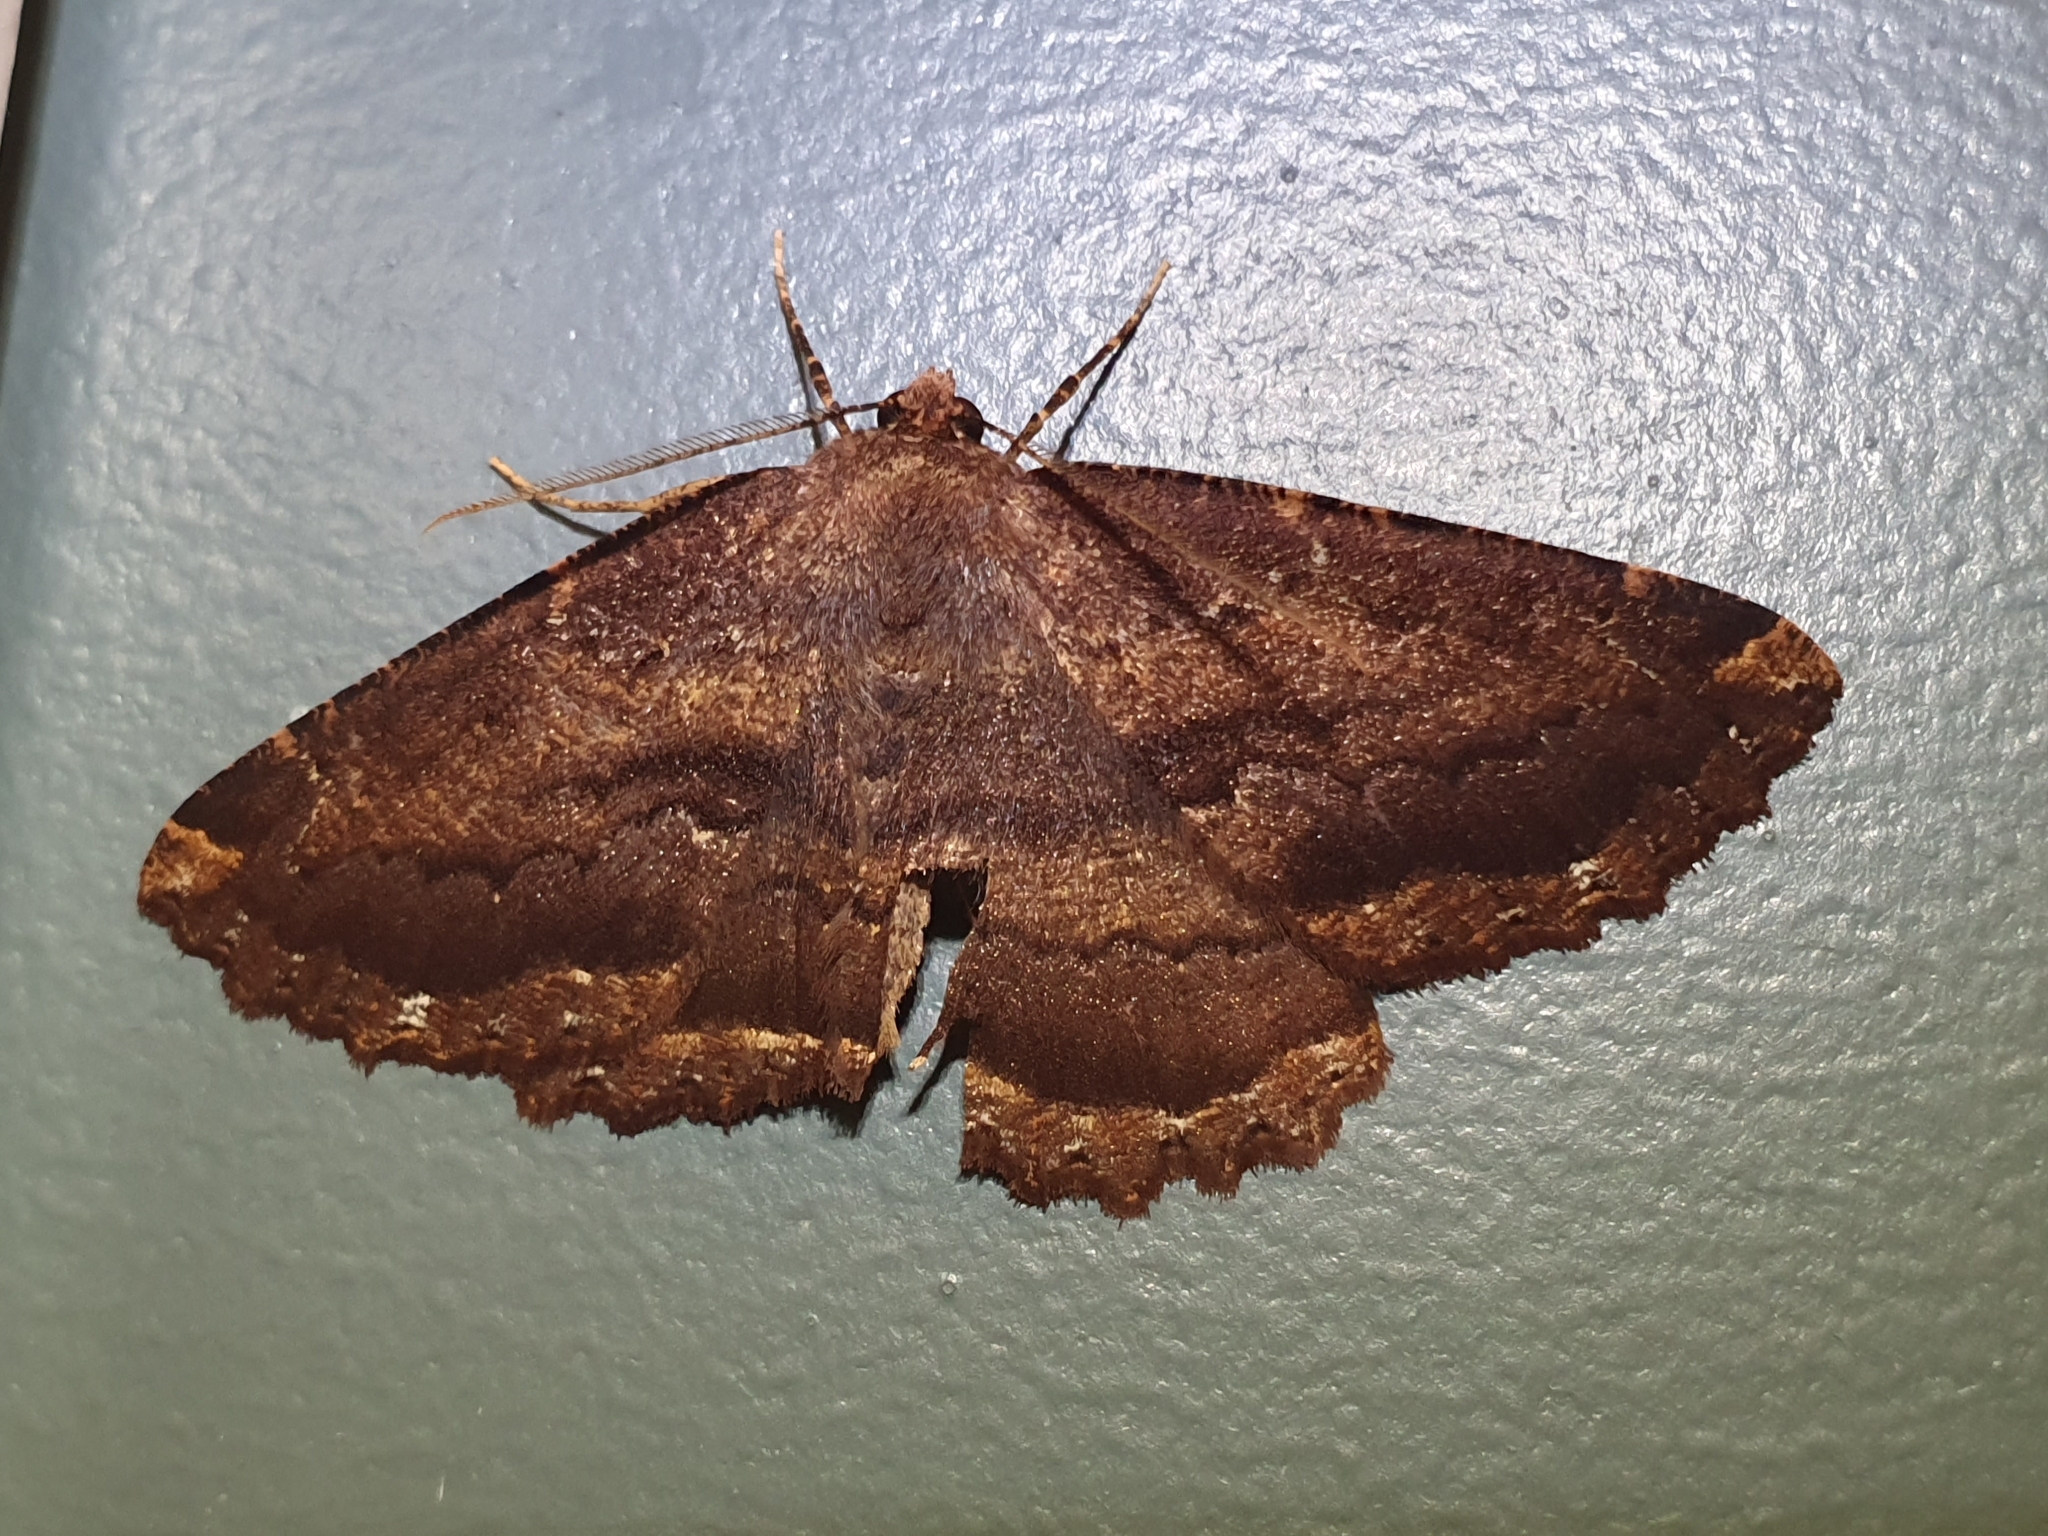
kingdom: Animalia
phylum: Arthropoda
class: Insecta
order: Lepidoptera
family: Geometridae
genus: Gellonia
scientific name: Gellonia dejectaria
